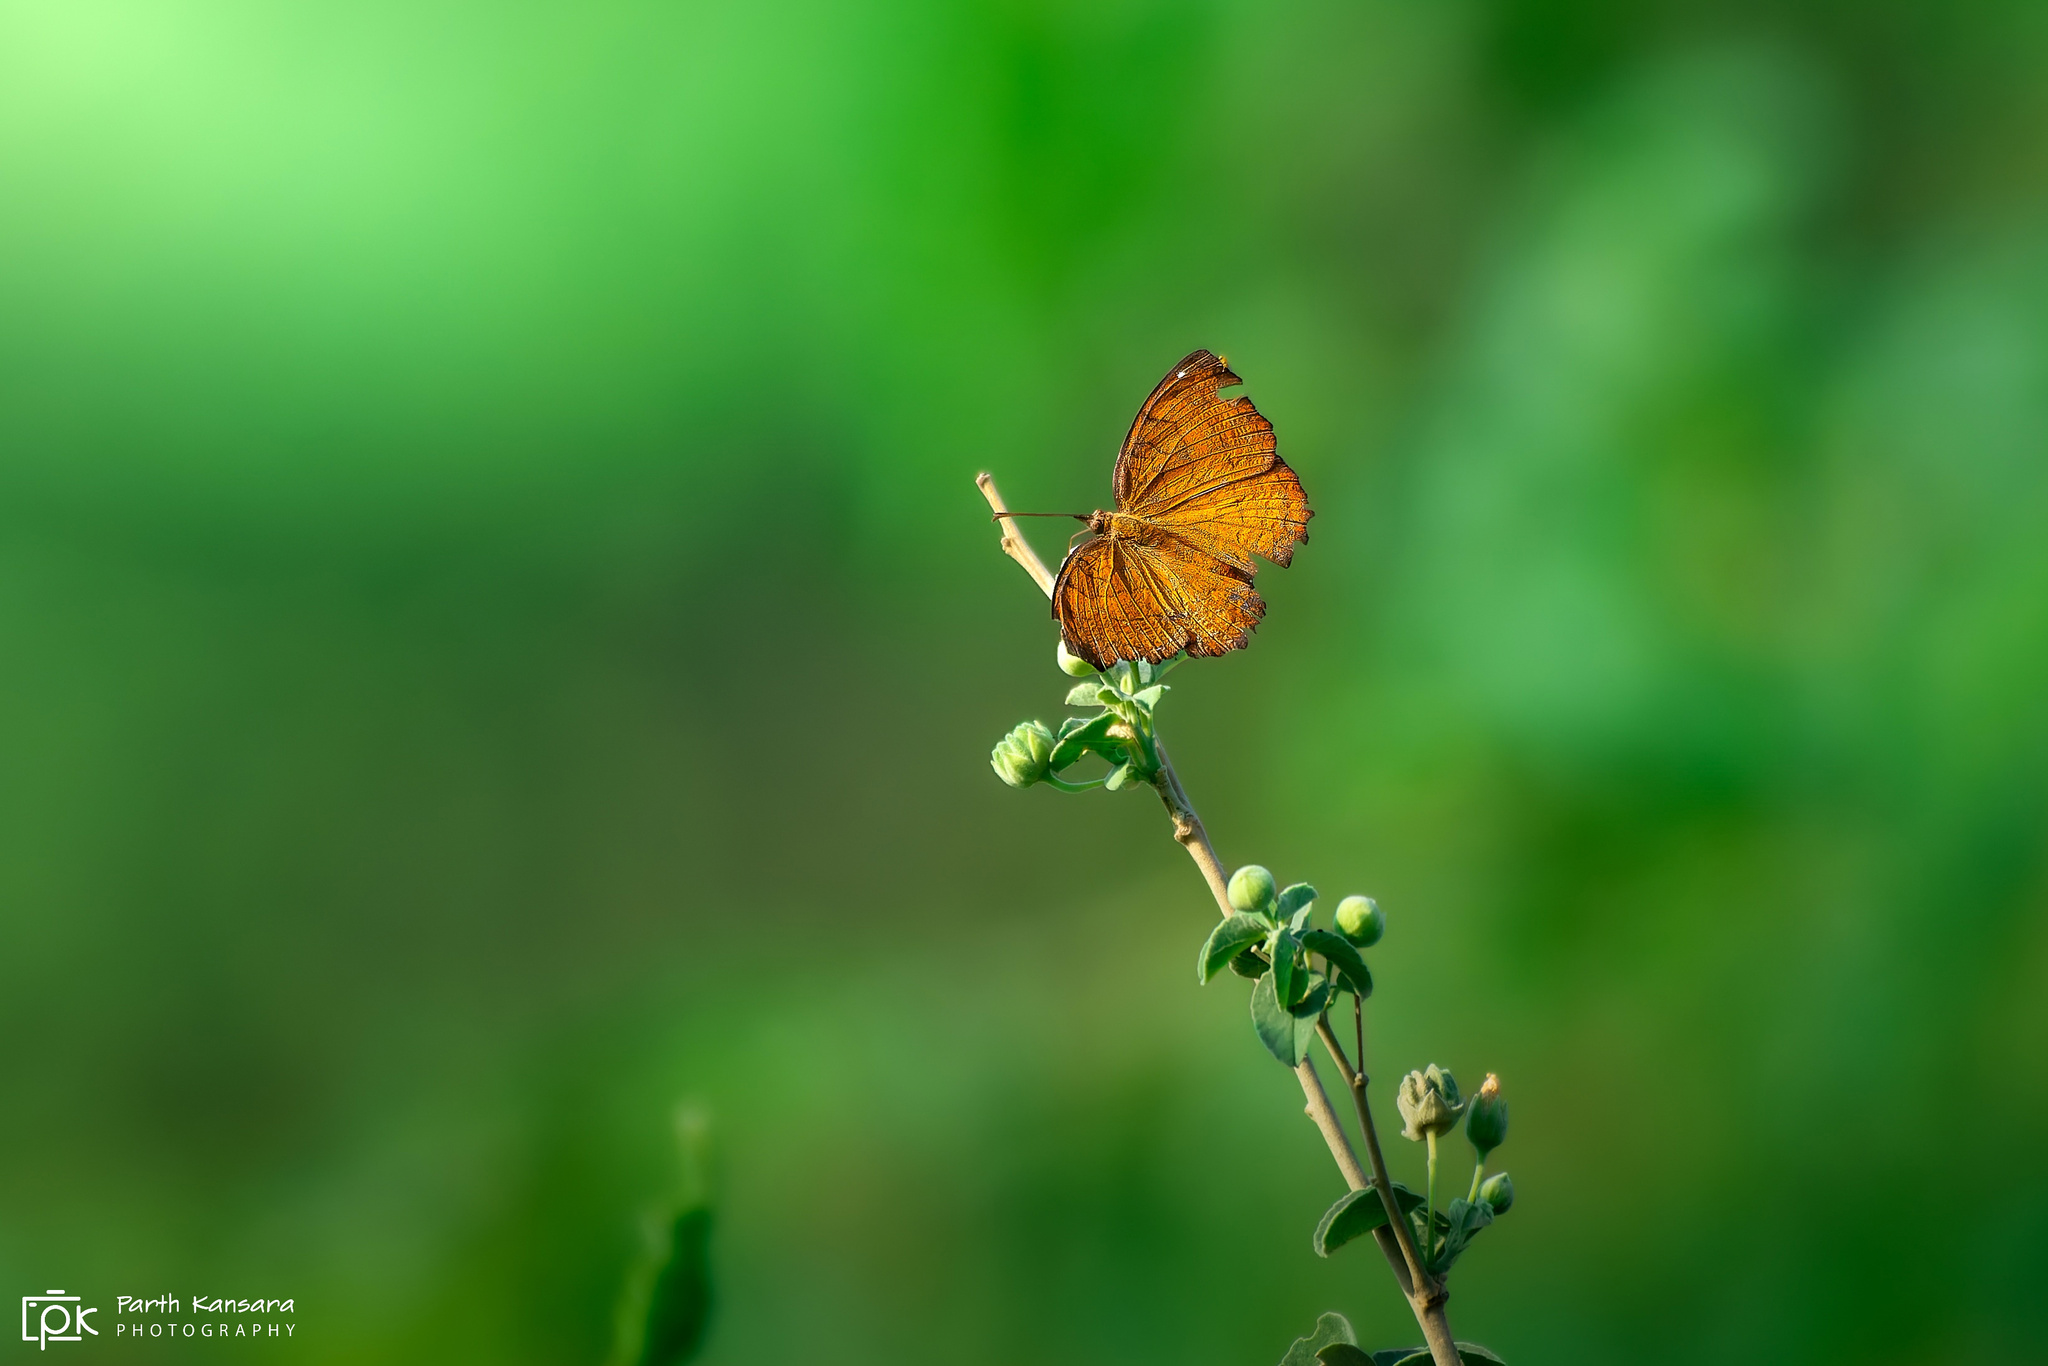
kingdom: Animalia
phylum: Arthropoda
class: Insecta
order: Lepidoptera
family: Nymphalidae
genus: Ariadne
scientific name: Ariadne ariadne
